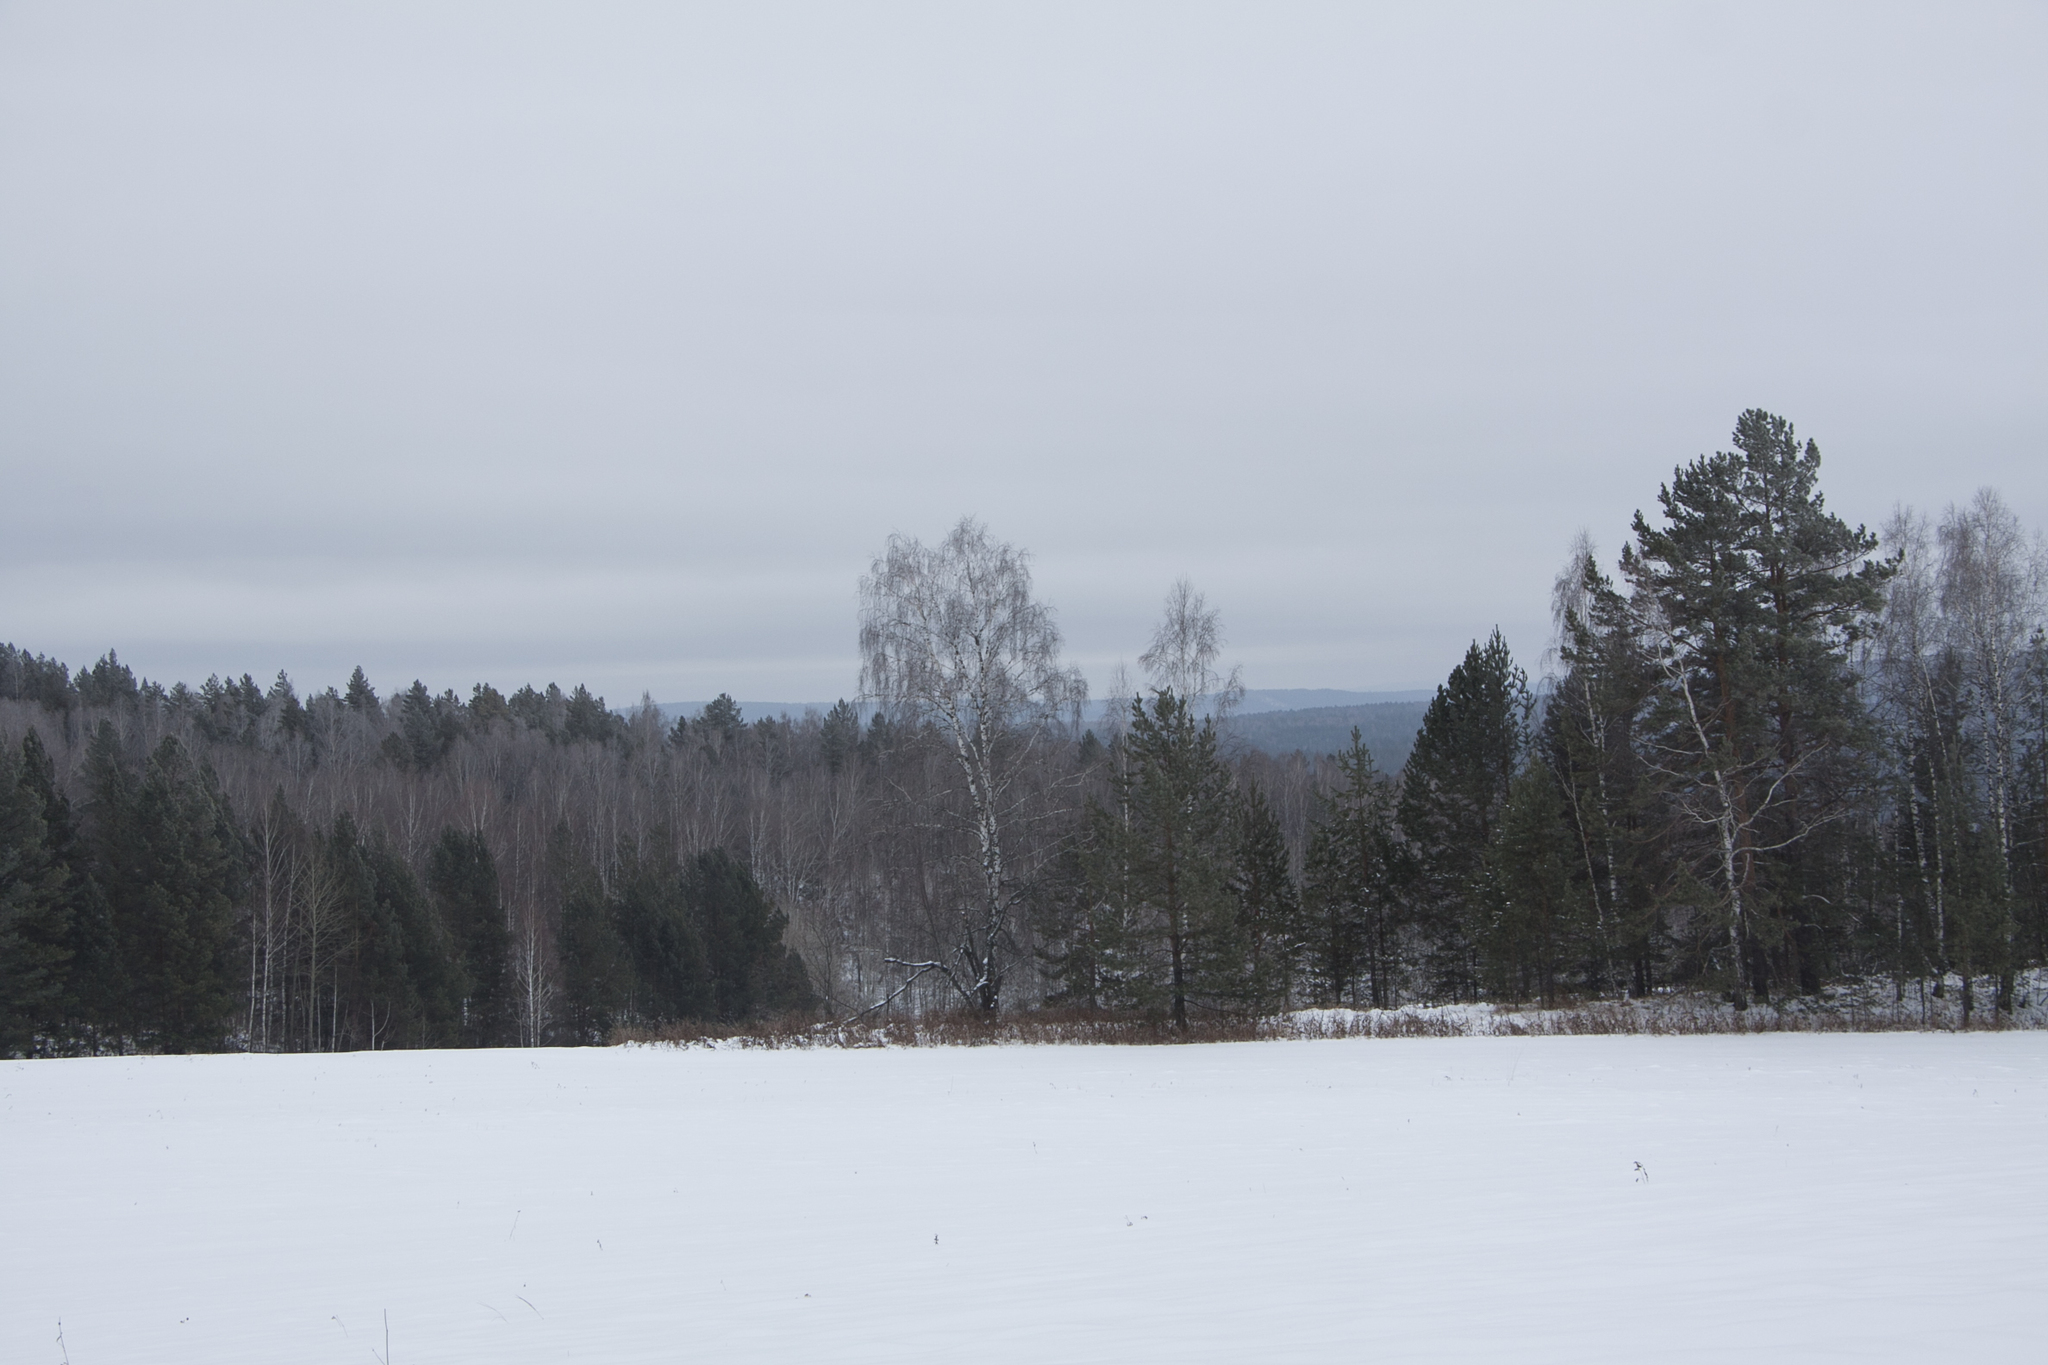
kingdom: Plantae
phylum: Tracheophyta
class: Pinopsida
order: Pinales
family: Pinaceae
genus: Pinus
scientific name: Pinus sylvestris
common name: Scots pine
